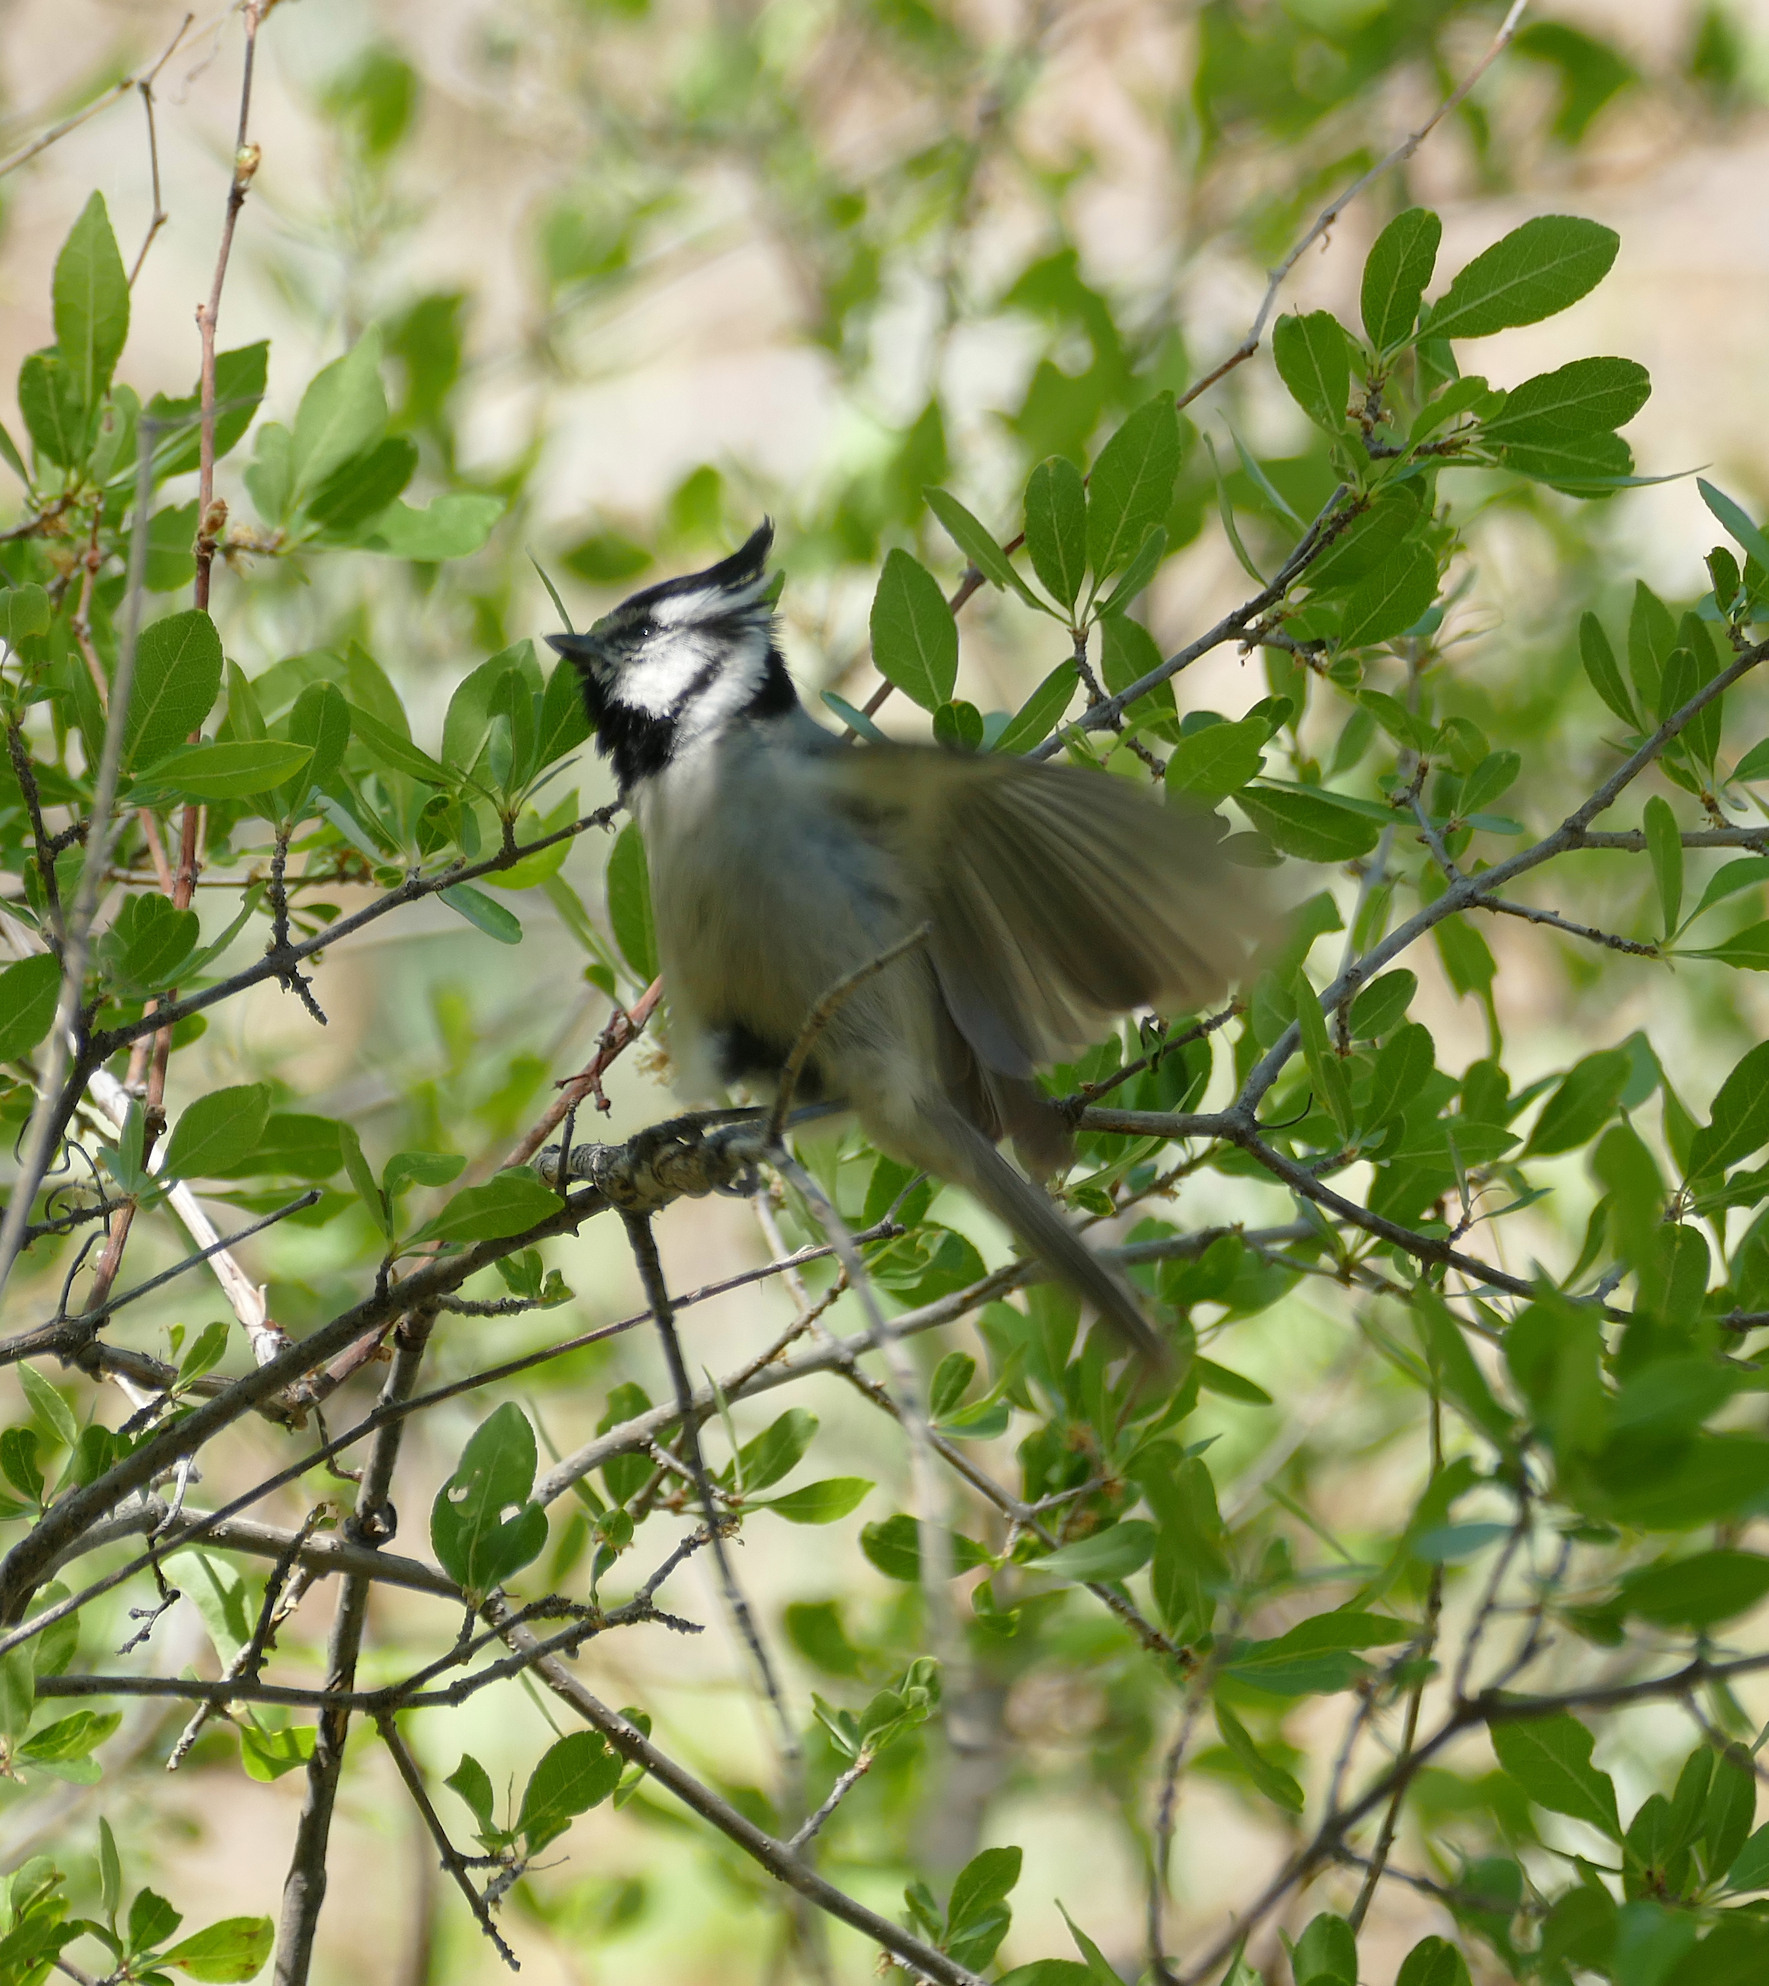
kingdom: Animalia
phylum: Chordata
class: Aves
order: Passeriformes
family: Paridae
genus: Baeolophus
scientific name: Baeolophus wollweberi
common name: Bridled titmouse
